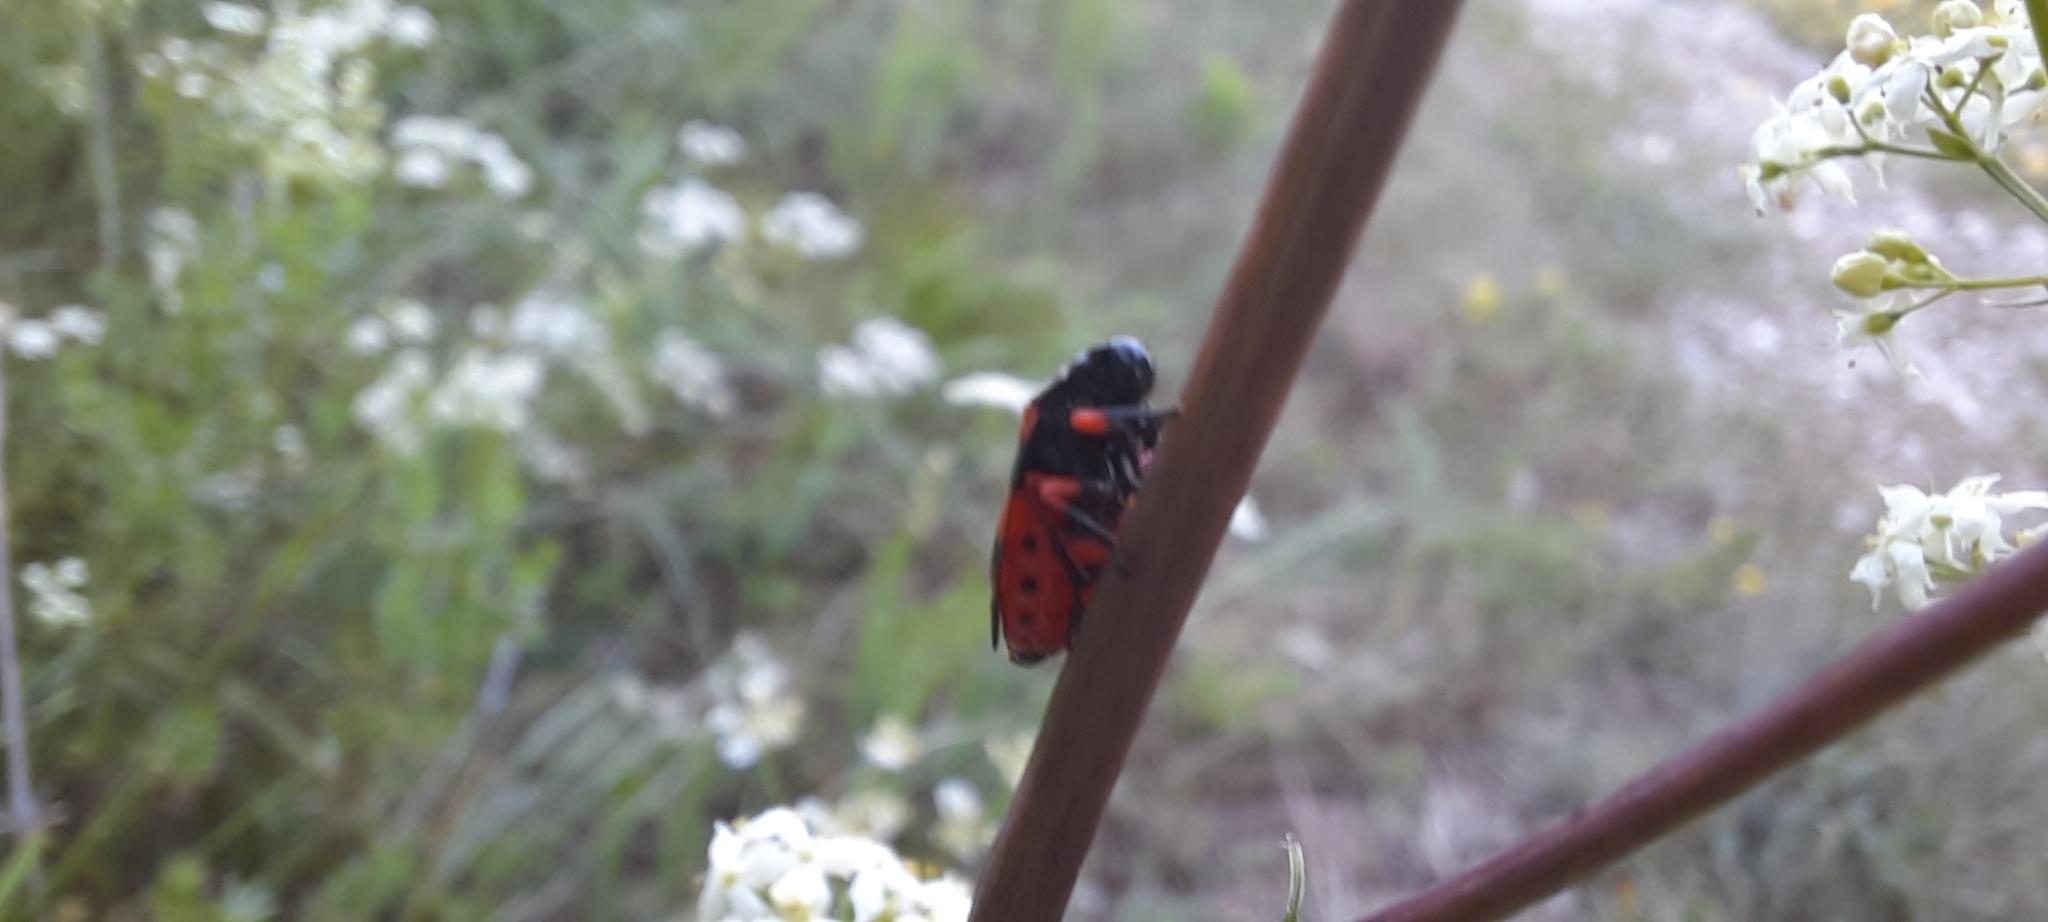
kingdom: Animalia
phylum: Arthropoda
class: Insecta
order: Hemiptera
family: Cercopidae
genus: Cercopis
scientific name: Cercopis intermedia
